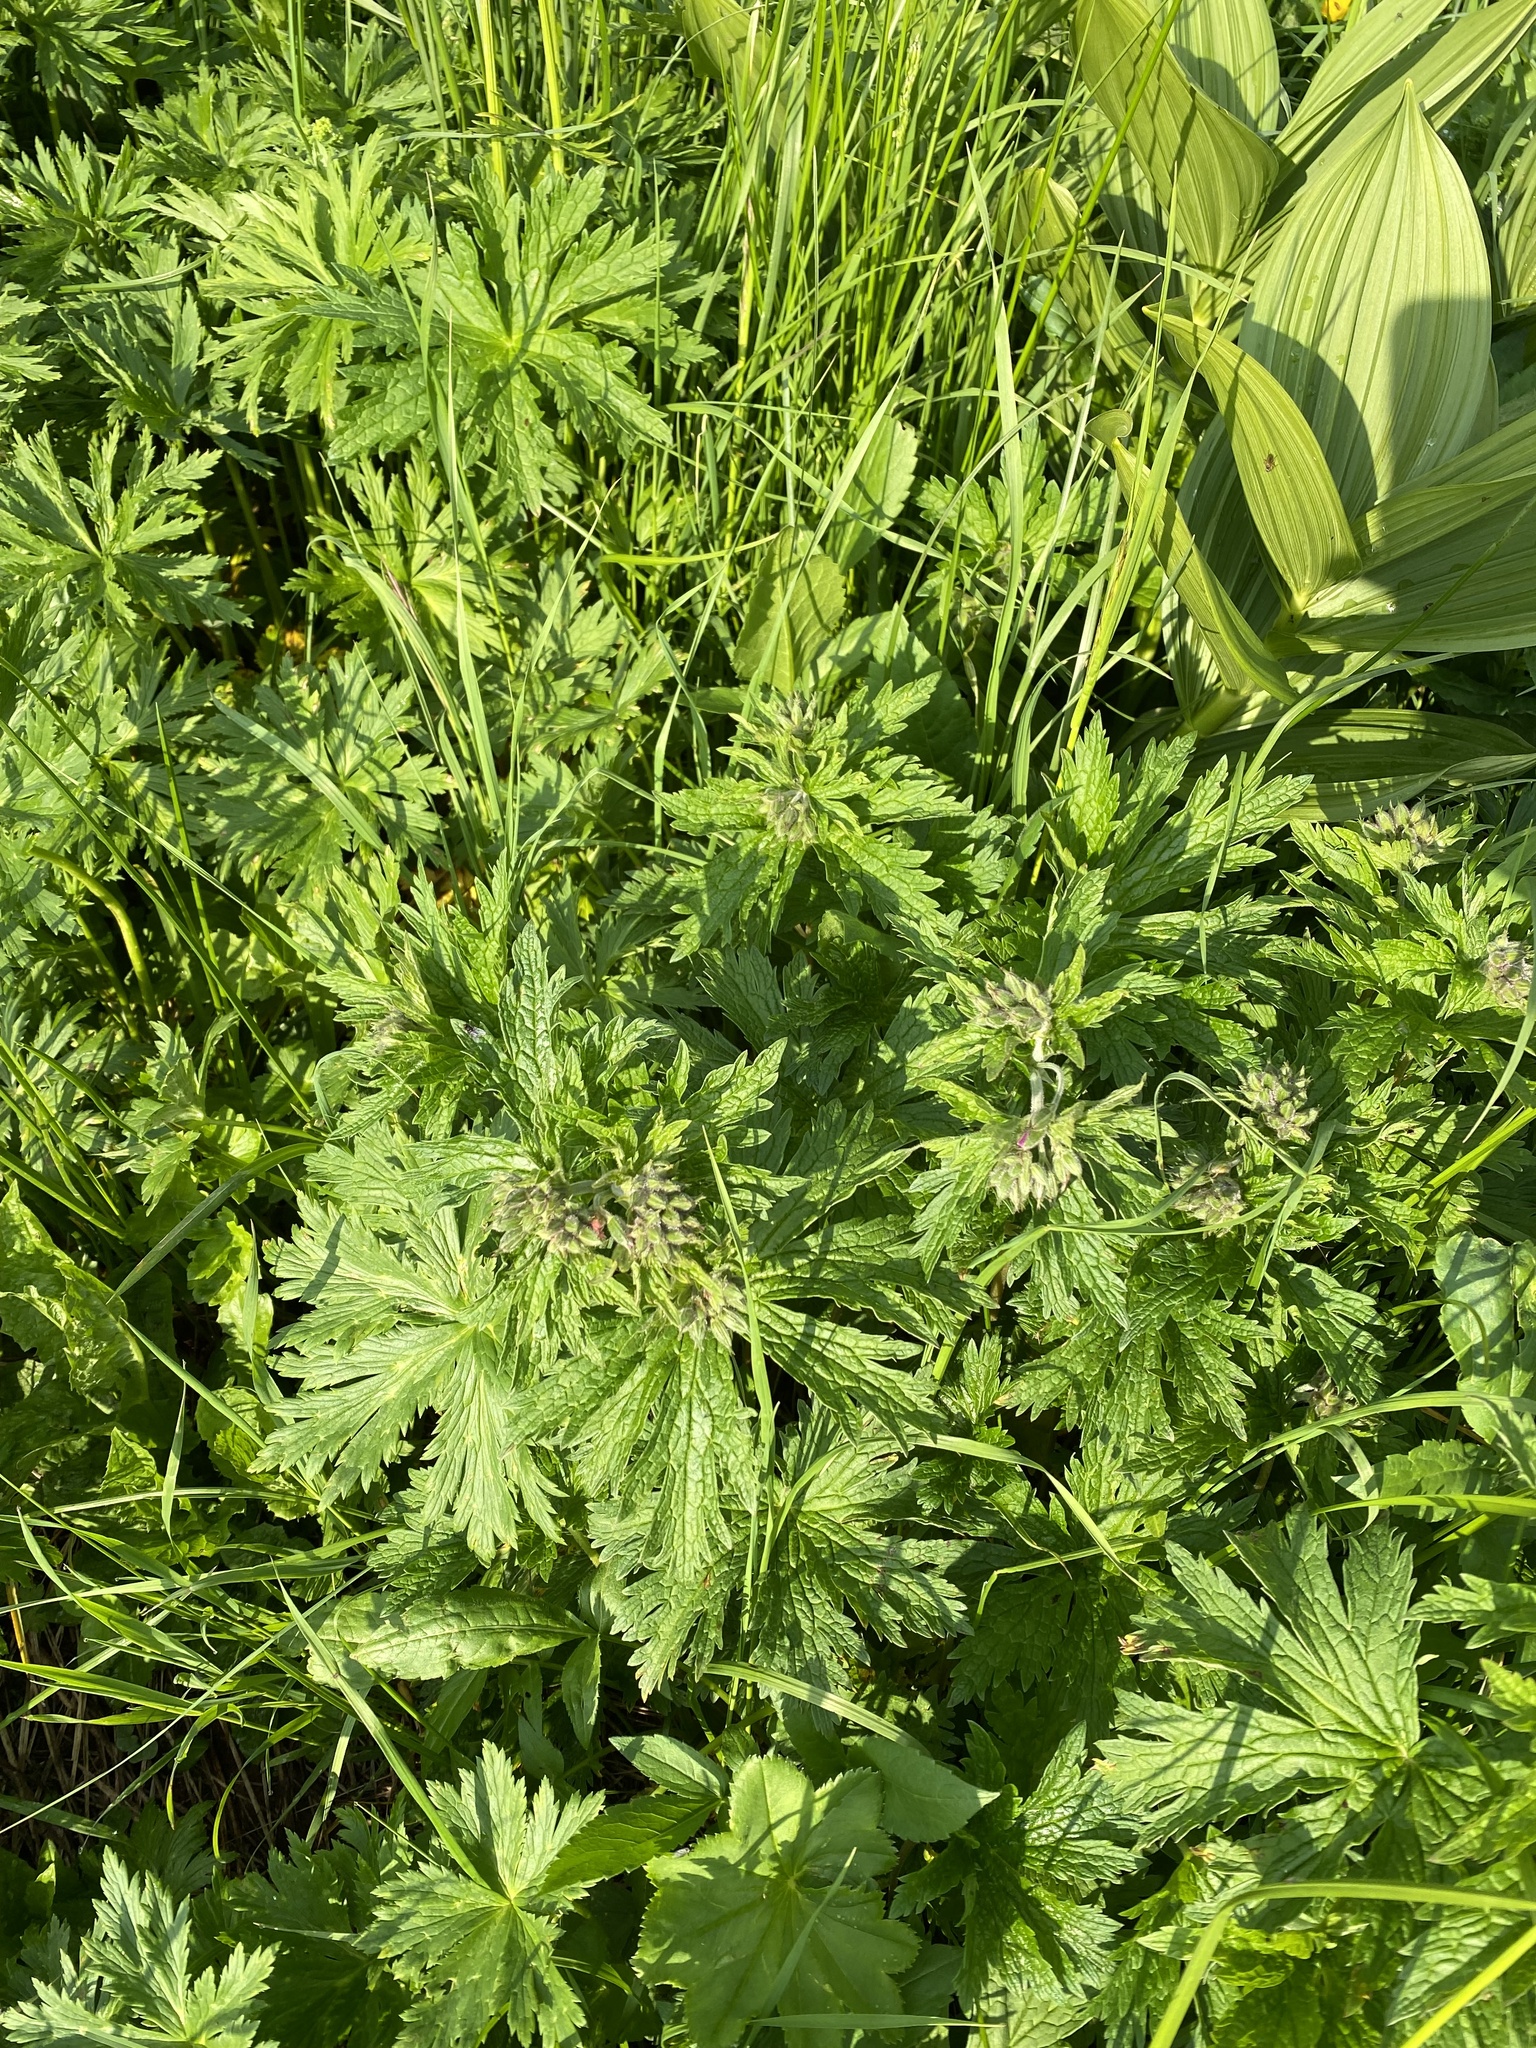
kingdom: Plantae
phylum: Tracheophyta
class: Magnoliopsida
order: Geraniales
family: Geraniaceae
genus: Geranium
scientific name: Geranium pratense
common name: Meadow crane's-bill
